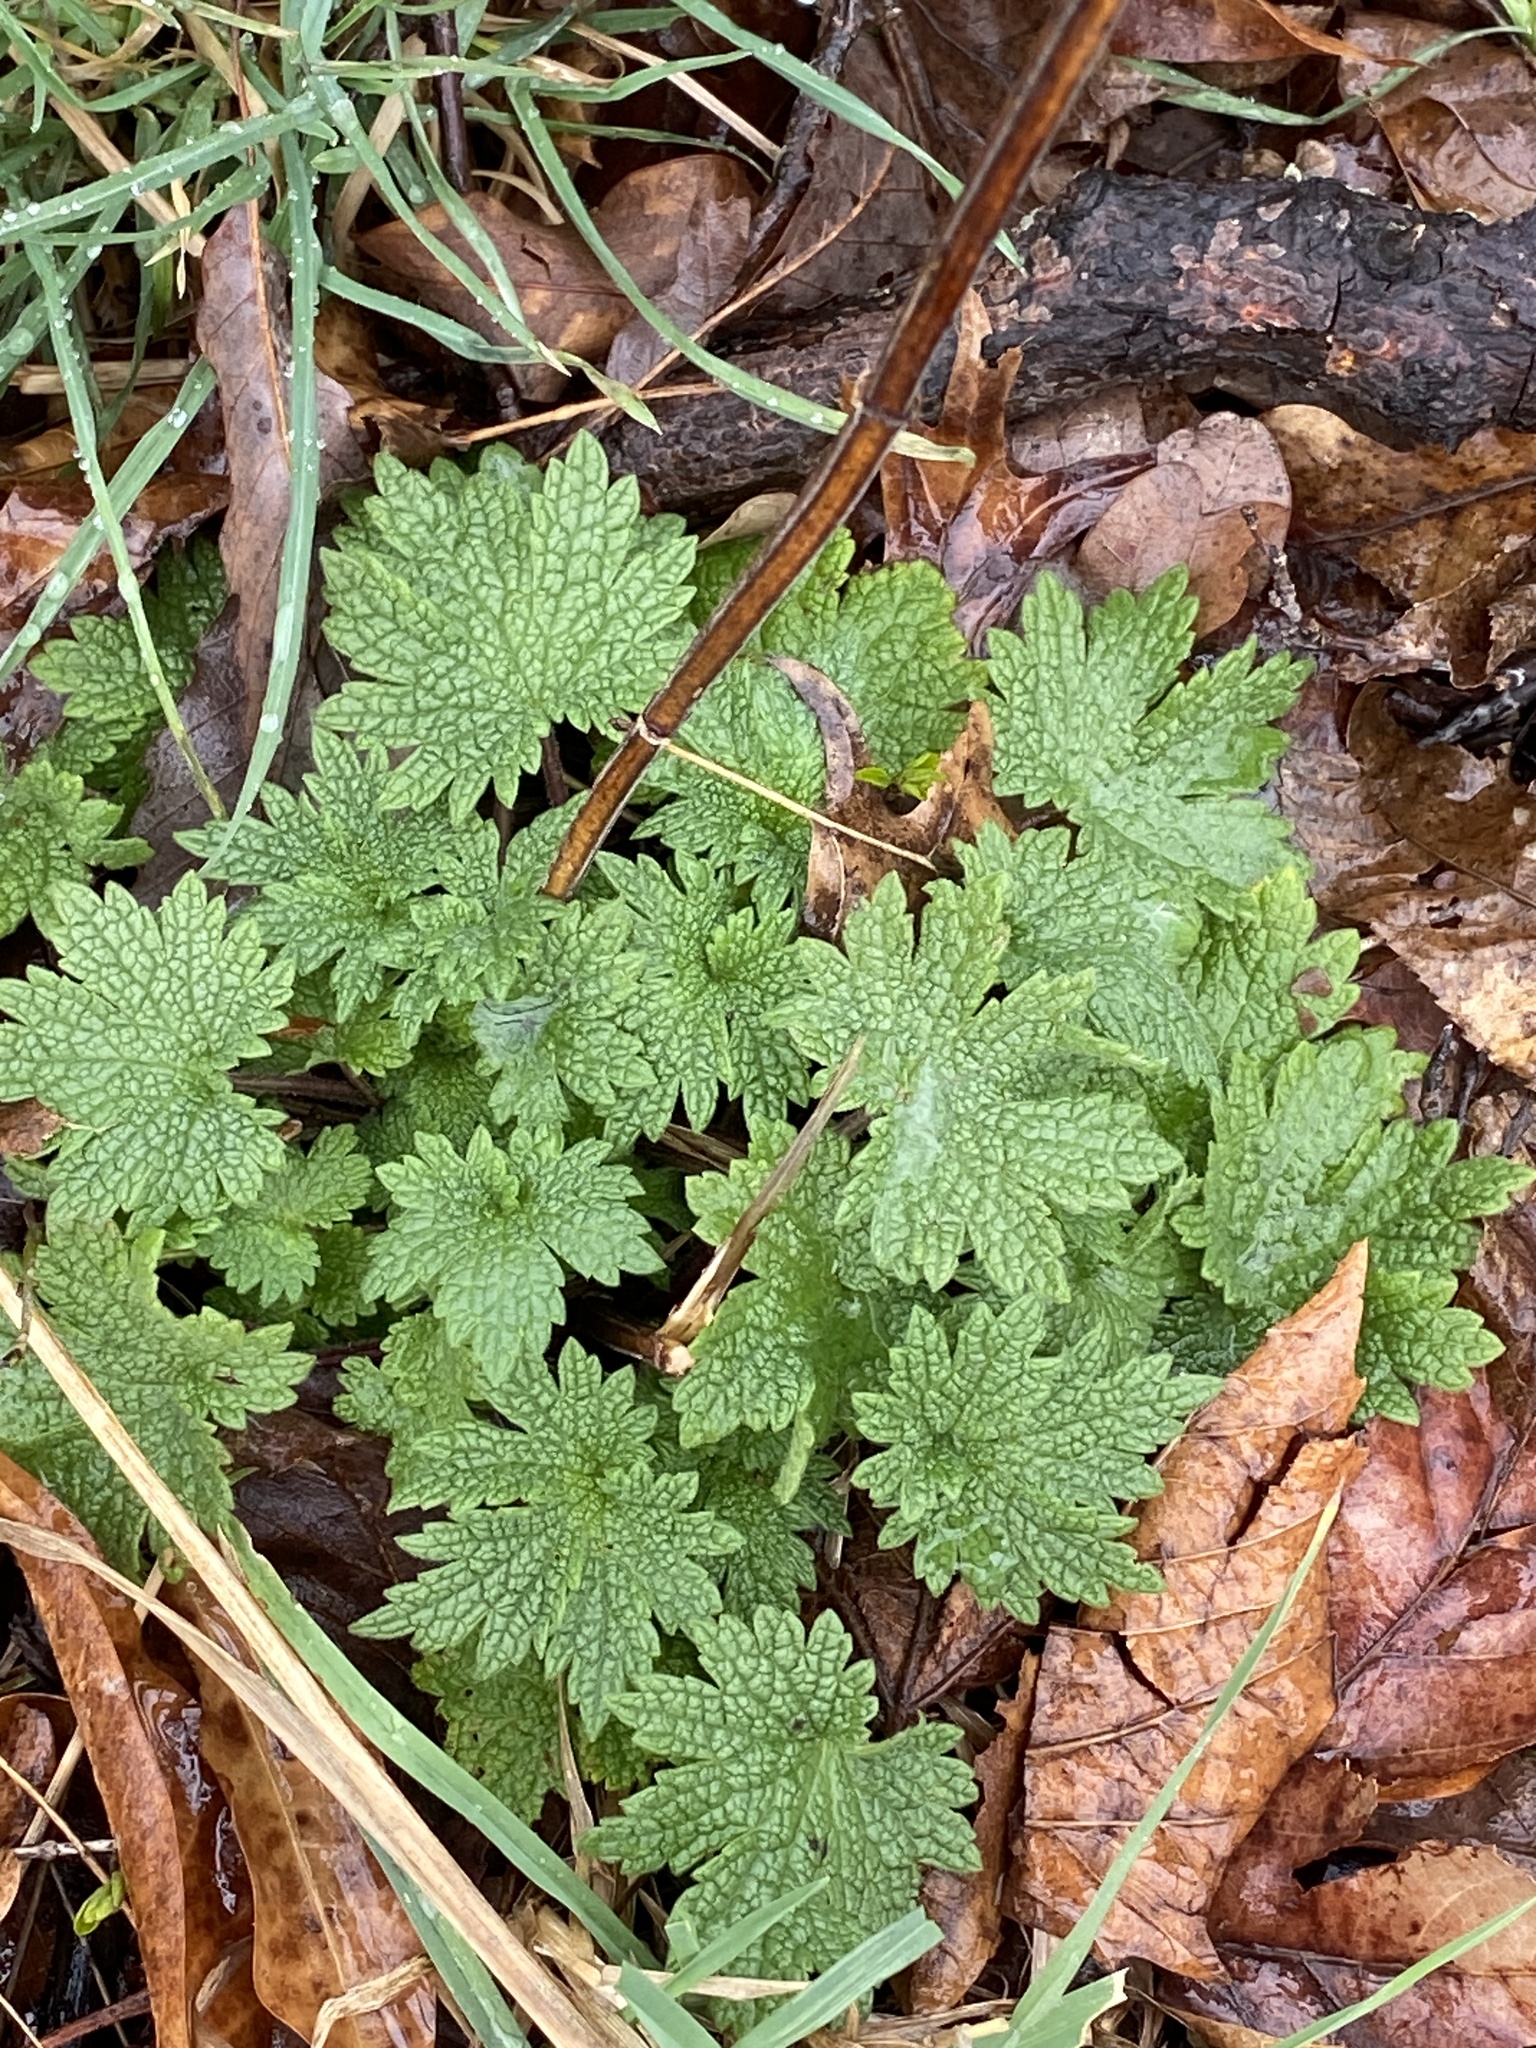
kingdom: Plantae
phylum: Tracheophyta
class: Magnoliopsida
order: Lamiales
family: Lamiaceae
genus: Leonurus
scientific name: Leonurus cardiaca
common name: Motherwort
